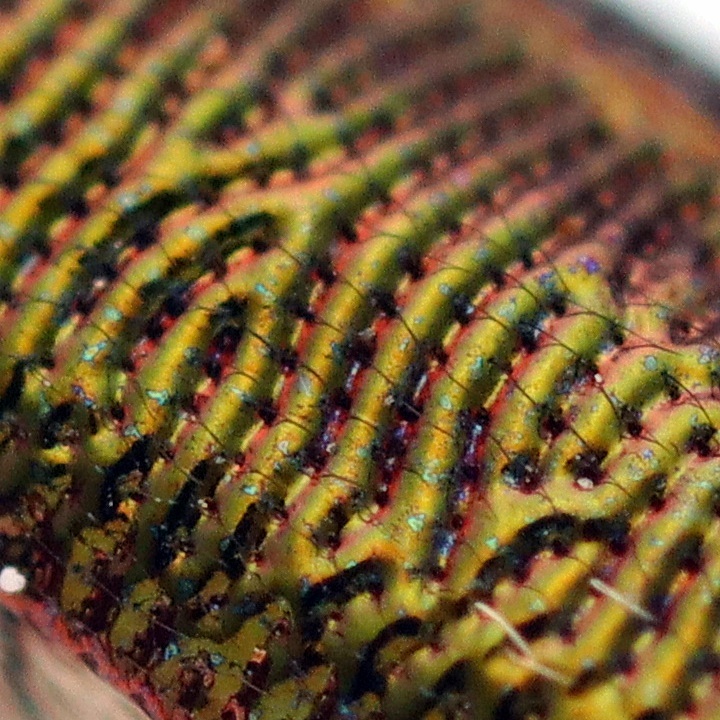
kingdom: Animalia
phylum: Arthropoda
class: Insecta
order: Coleoptera
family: Belidae
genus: Rhicnobelus
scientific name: Rhicnobelus
